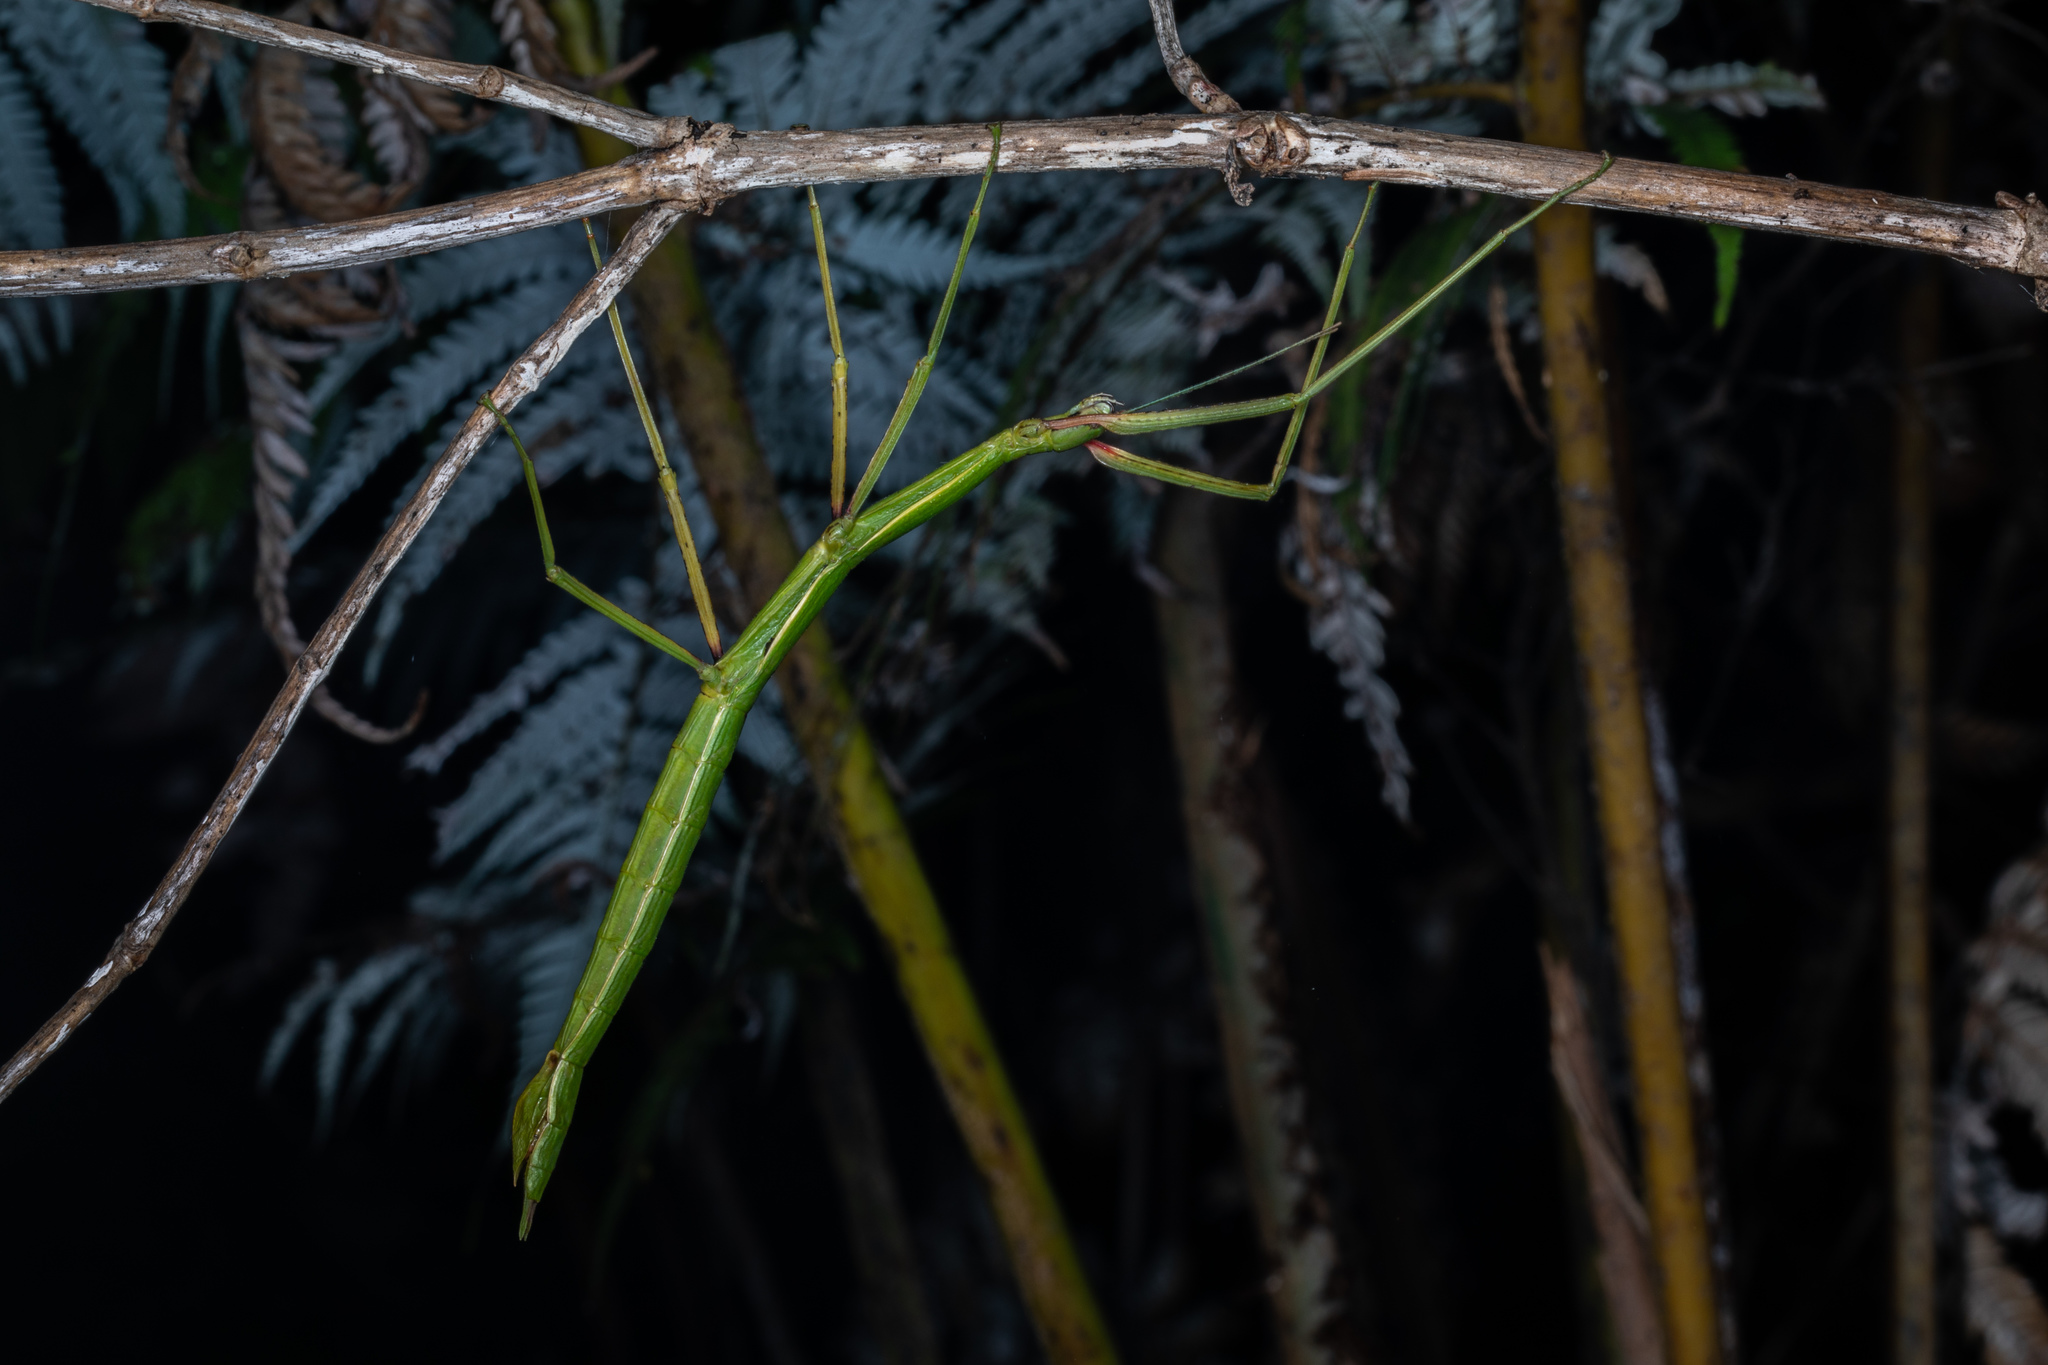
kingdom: Animalia
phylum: Arthropoda
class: Insecta
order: Phasmida
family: Phasmatidae
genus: Clitarchus
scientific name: Clitarchus hookeri
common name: Smooth stick insect
